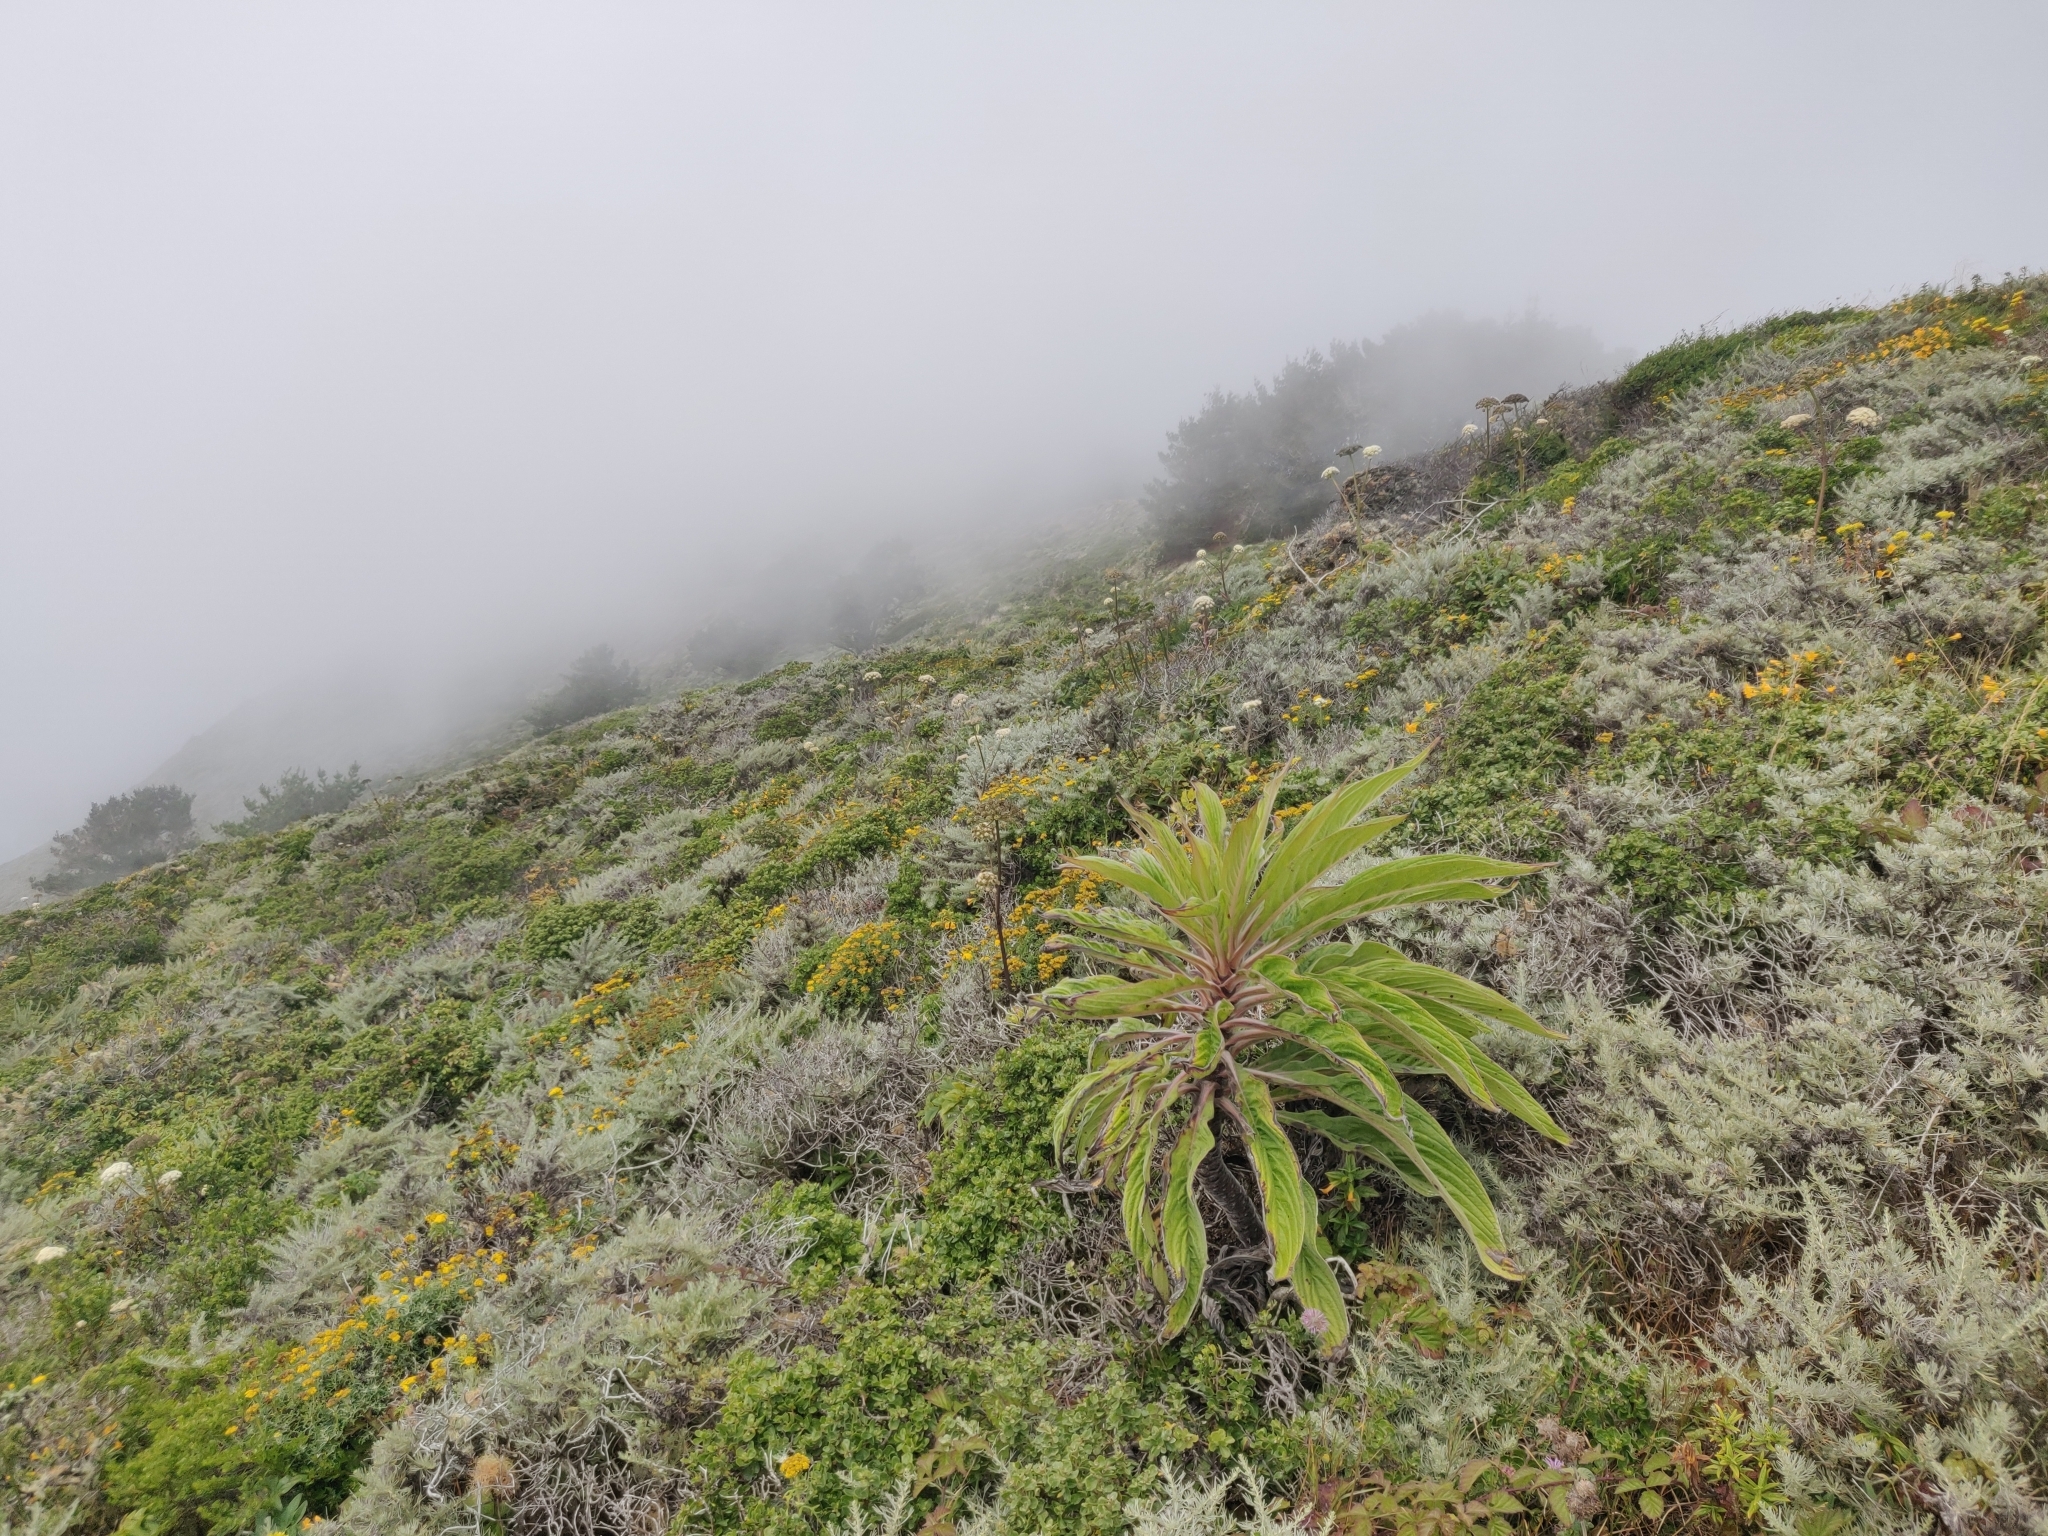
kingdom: Plantae
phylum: Tracheophyta
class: Magnoliopsida
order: Boraginales
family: Boraginaceae
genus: Echium
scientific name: Echium pininana
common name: Giant viper's-bugloss
